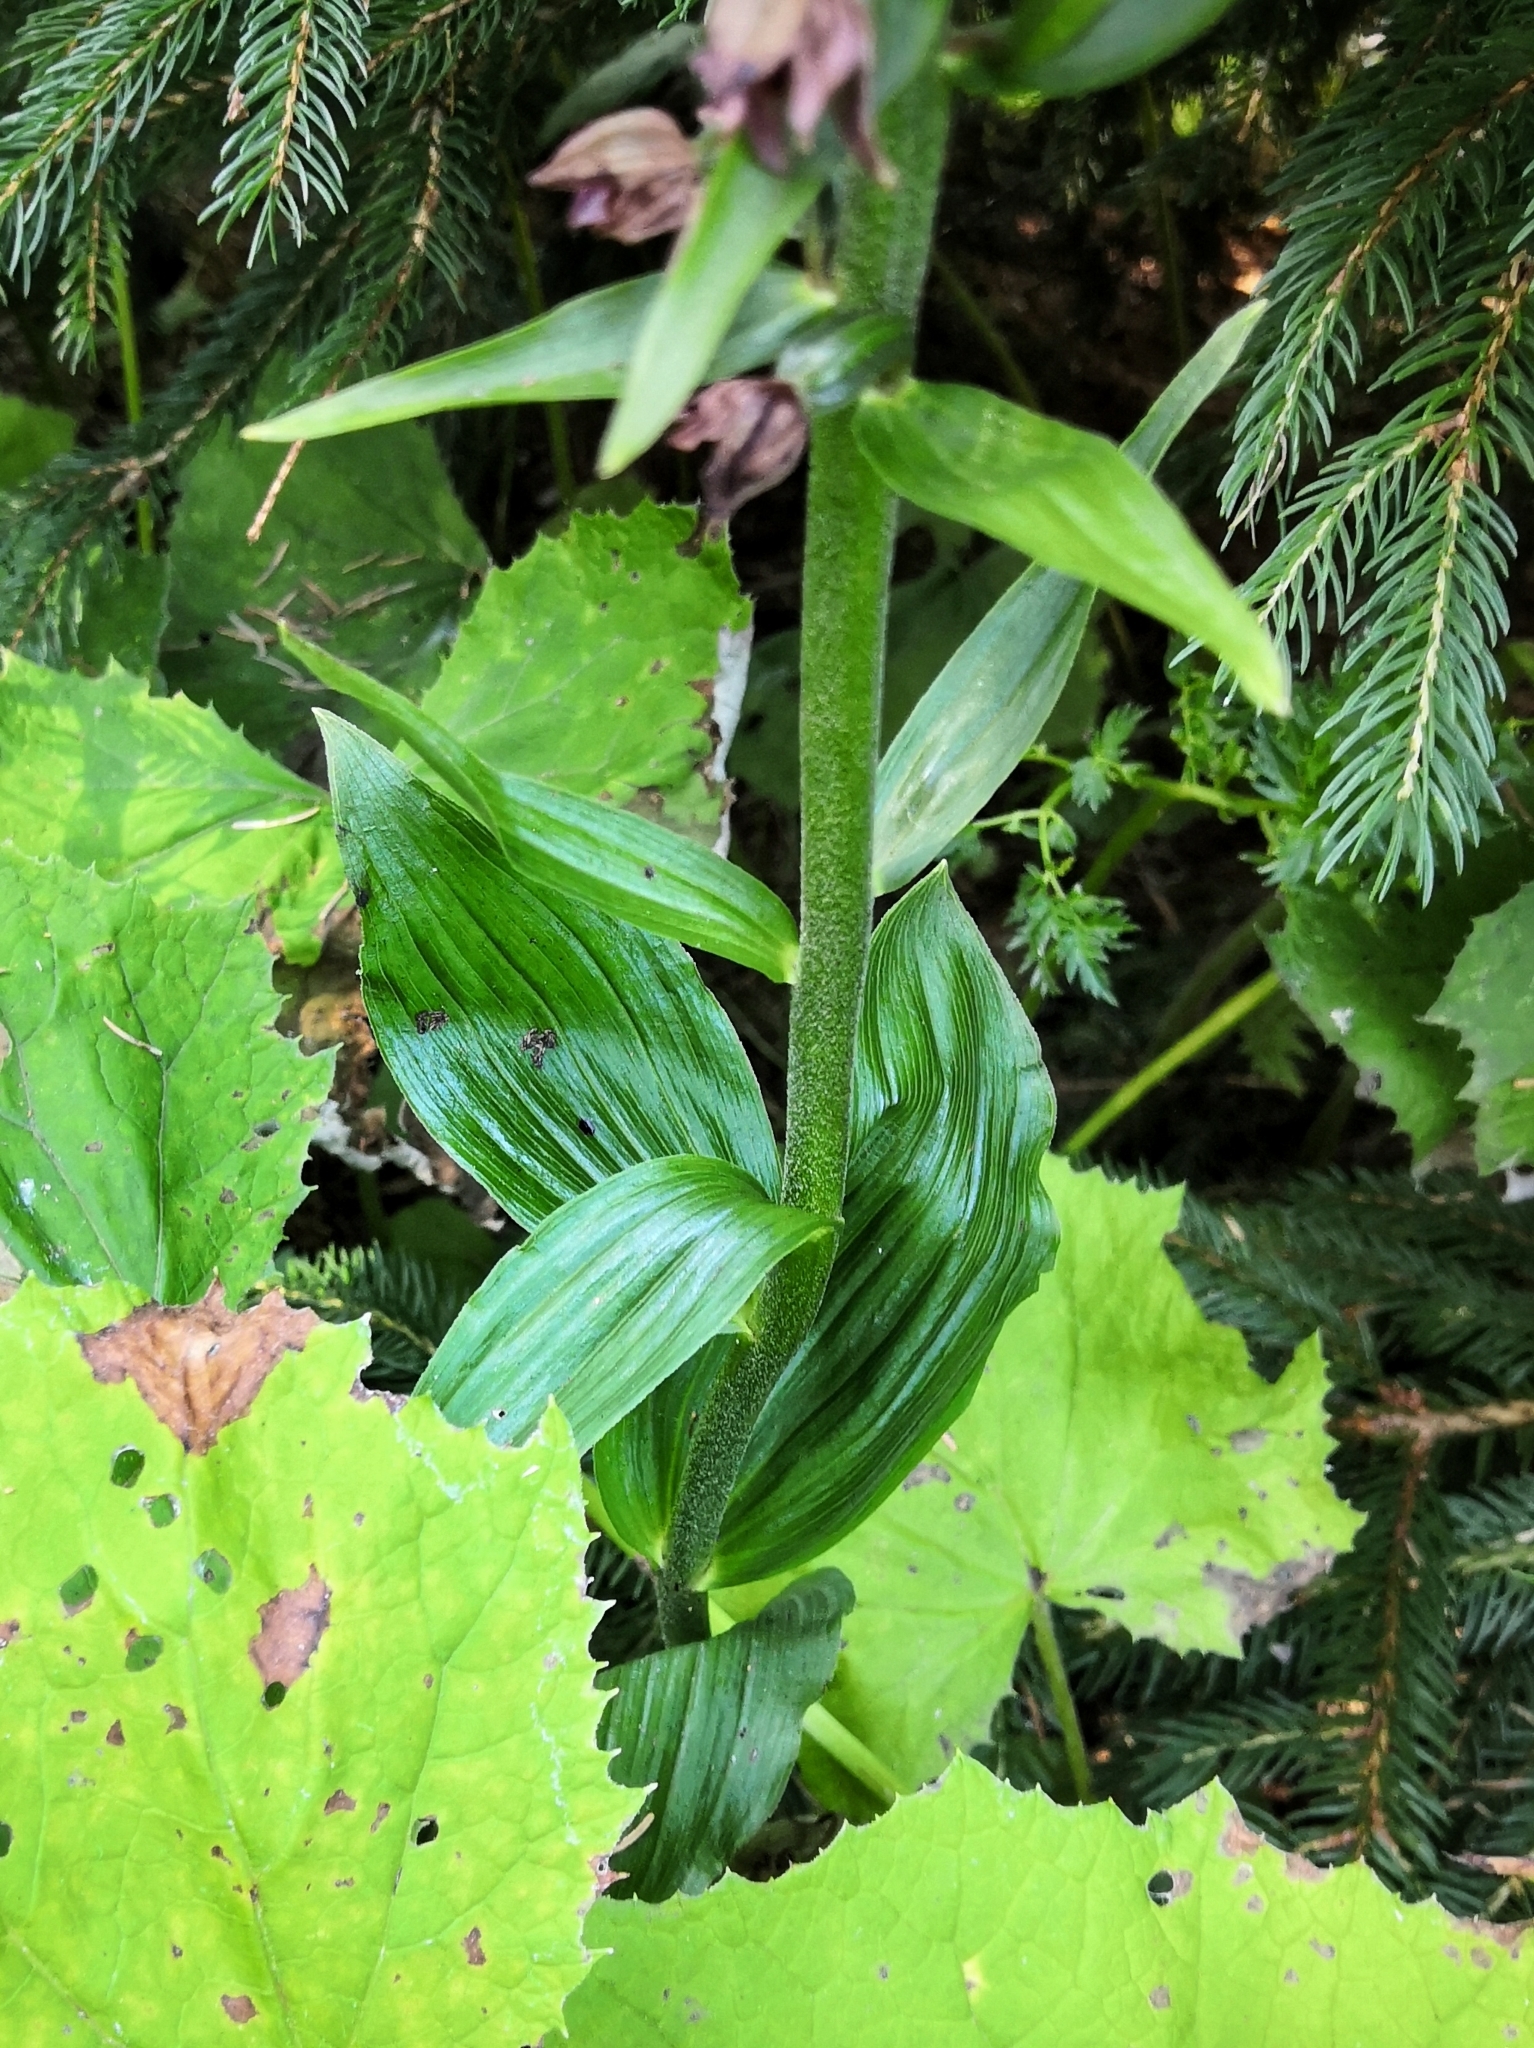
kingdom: Plantae
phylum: Tracheophyta
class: Liliopsida
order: Asparagales
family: Orchidaceae
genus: Epipactis
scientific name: Epipactis helleborine
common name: Broad-leaved helleborine
